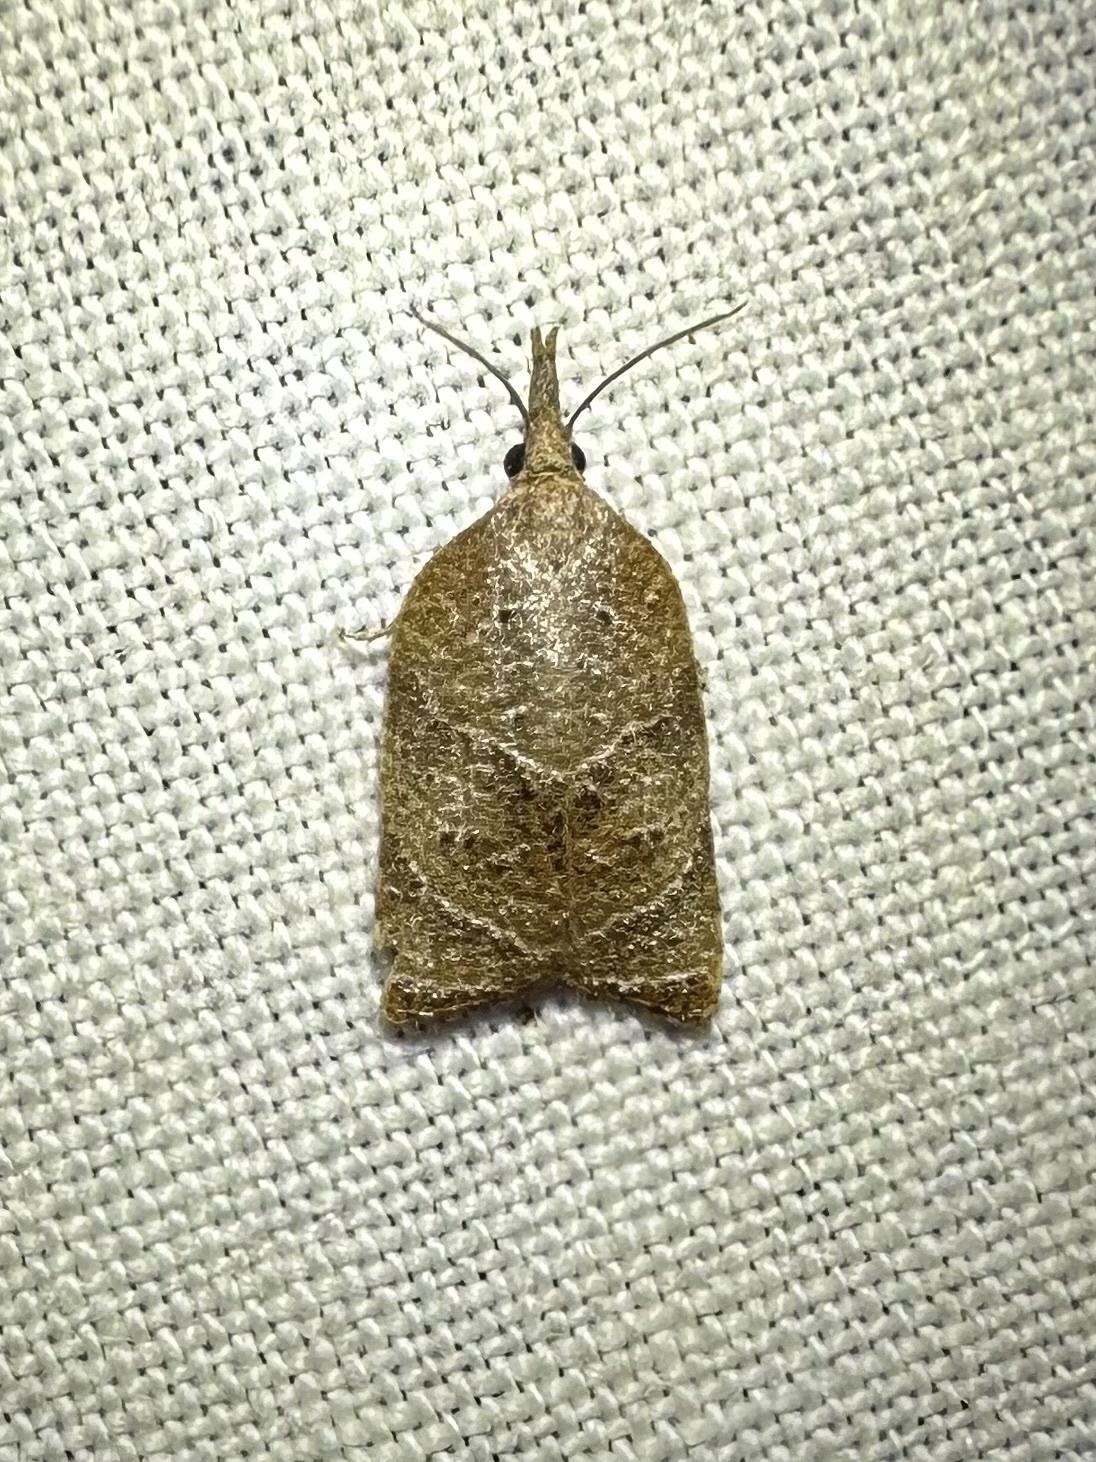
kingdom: Animalia
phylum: Arthropoda
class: Insecta
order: Lepidoptera
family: Tortricidae
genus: Platynota
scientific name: Platynota rostrana
